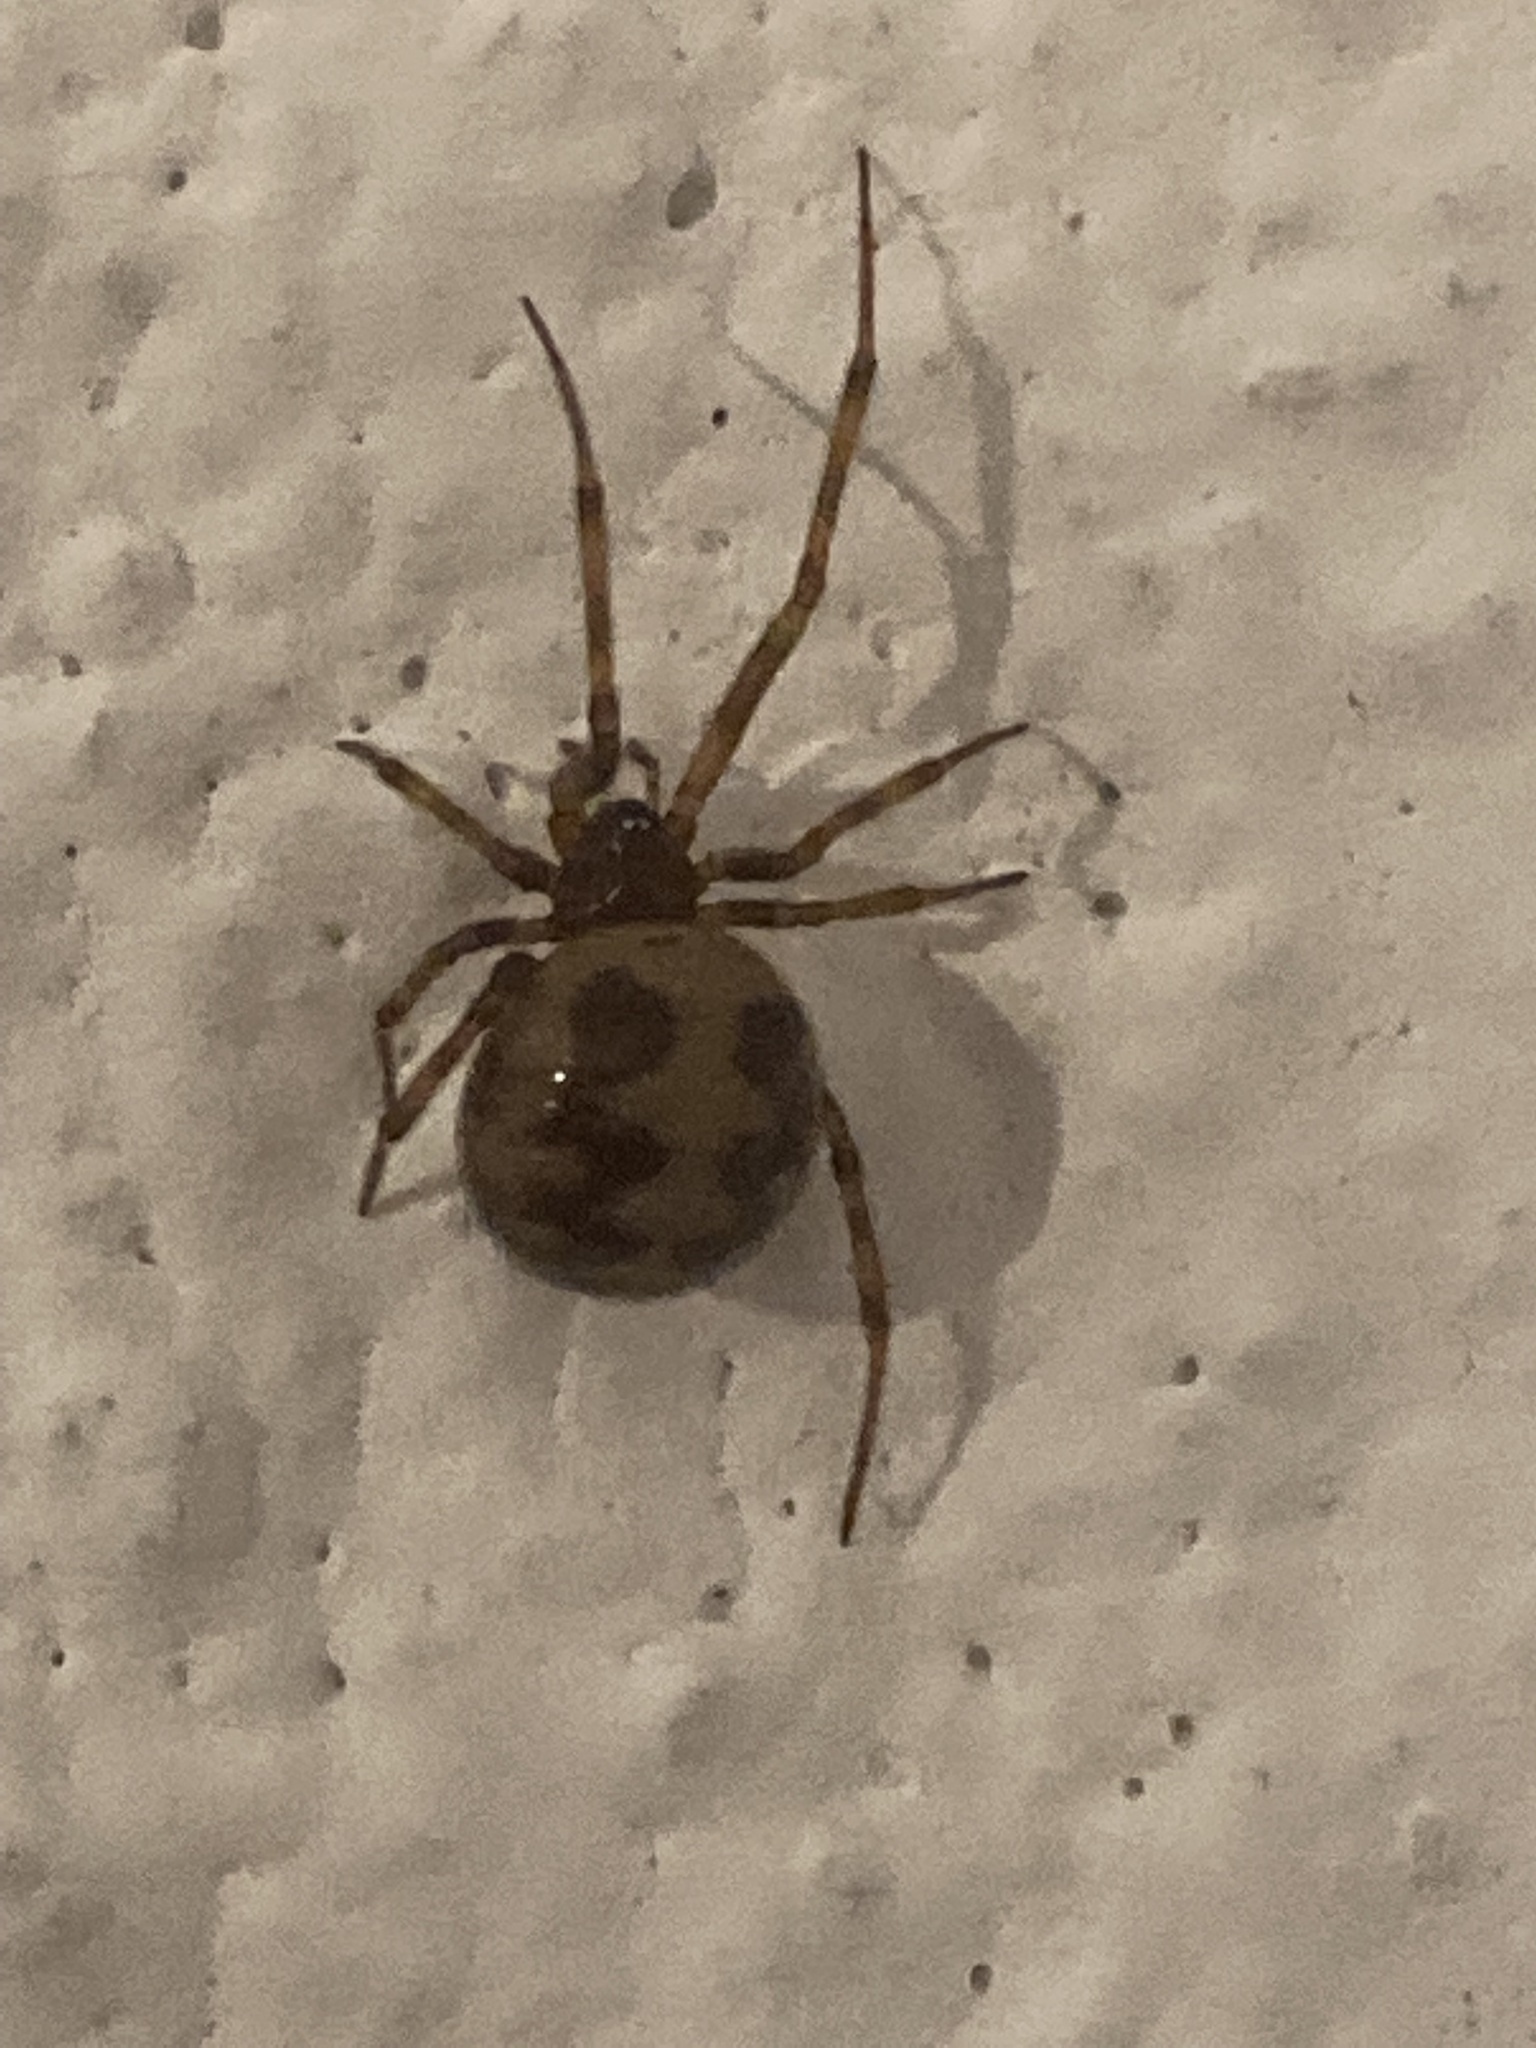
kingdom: Animalia
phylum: Arthropoda
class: Arachnida
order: Araneae
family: Theridiidae
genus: Steatoda
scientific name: Steatoda triangulosa
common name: Triangulate bud spider
